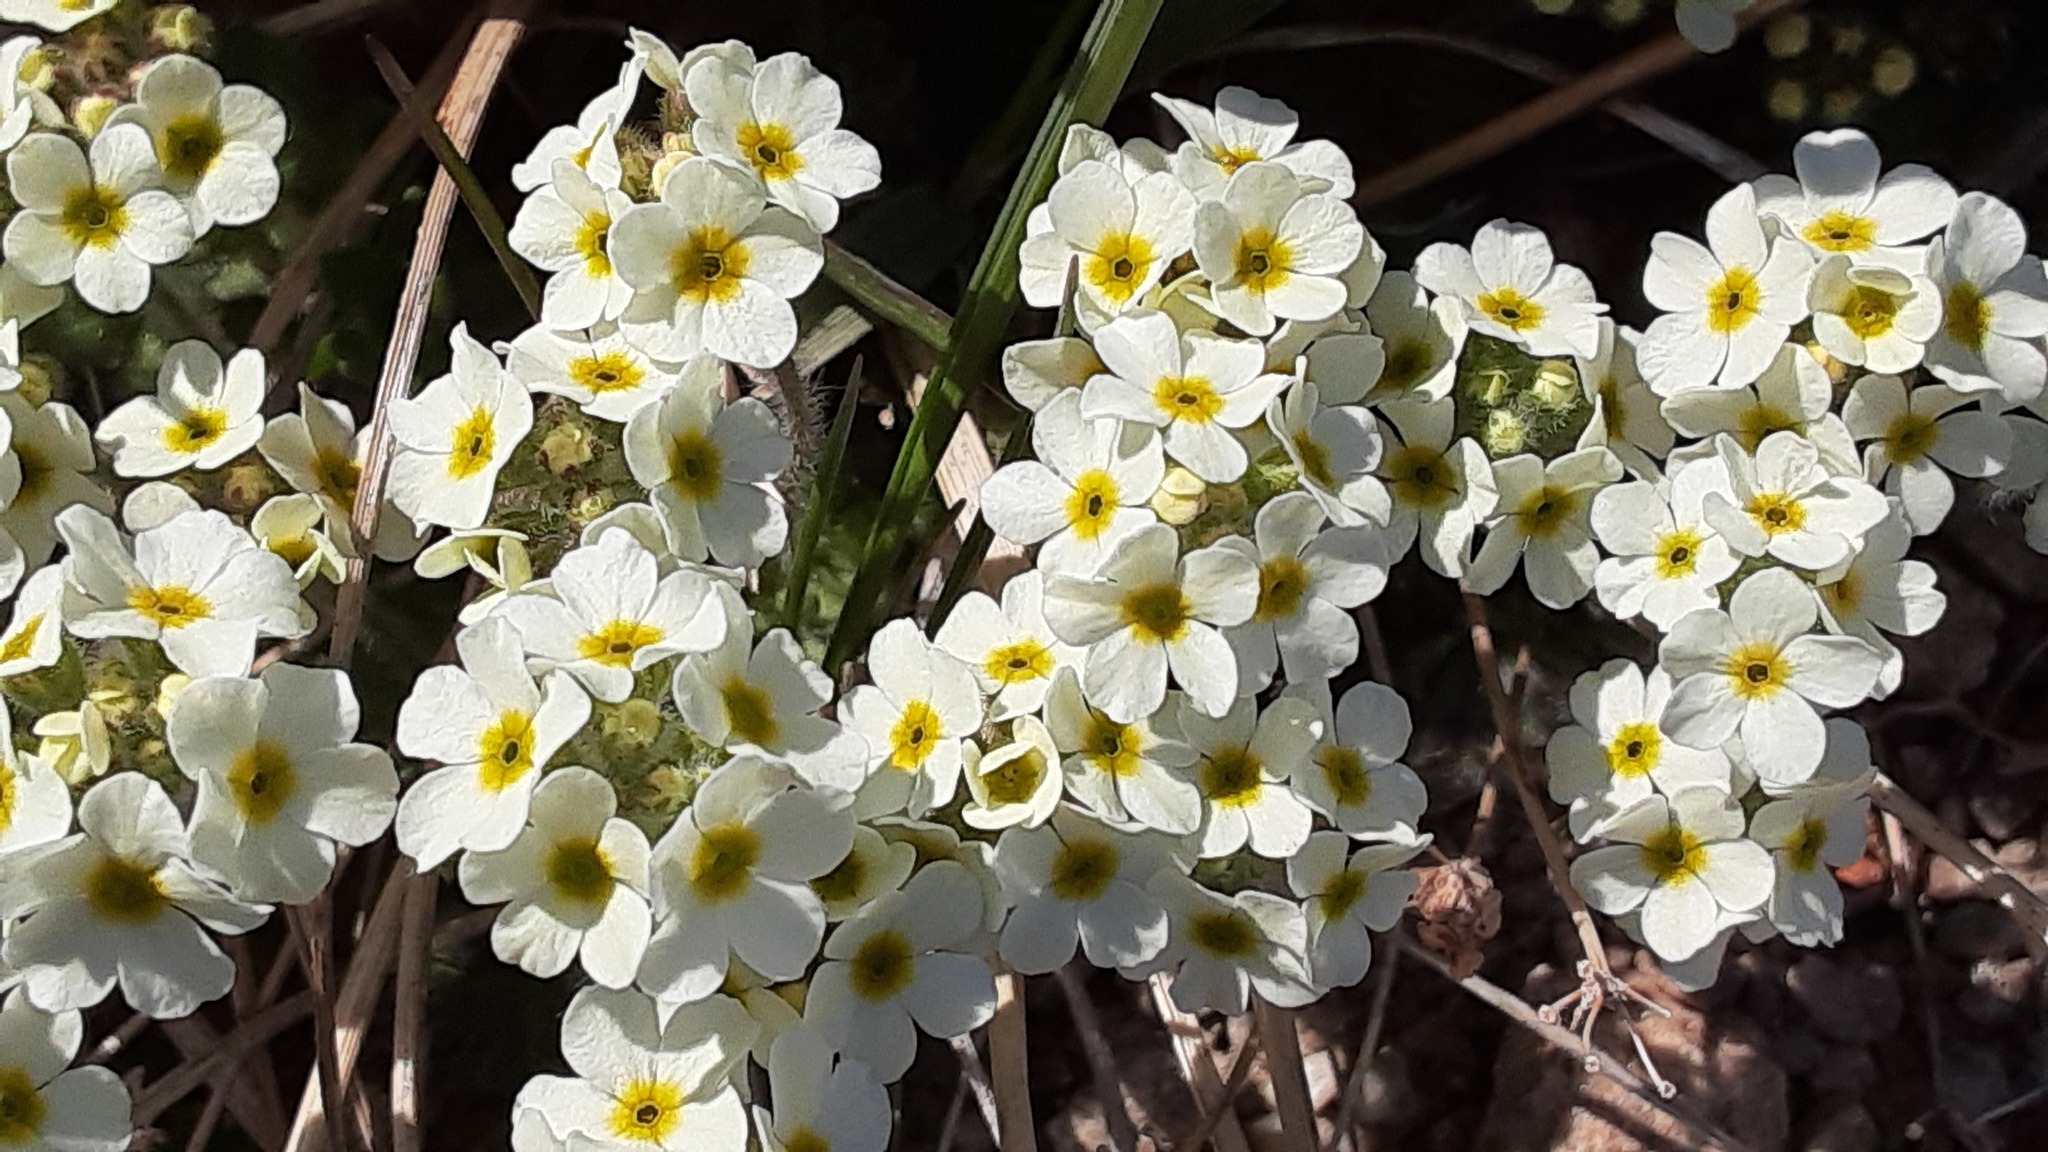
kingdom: Plantae
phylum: Tracheophyta
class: Magnoliopsida
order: Ericales
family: Primulaceae
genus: Androsace
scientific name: Androsace chamaejasme
